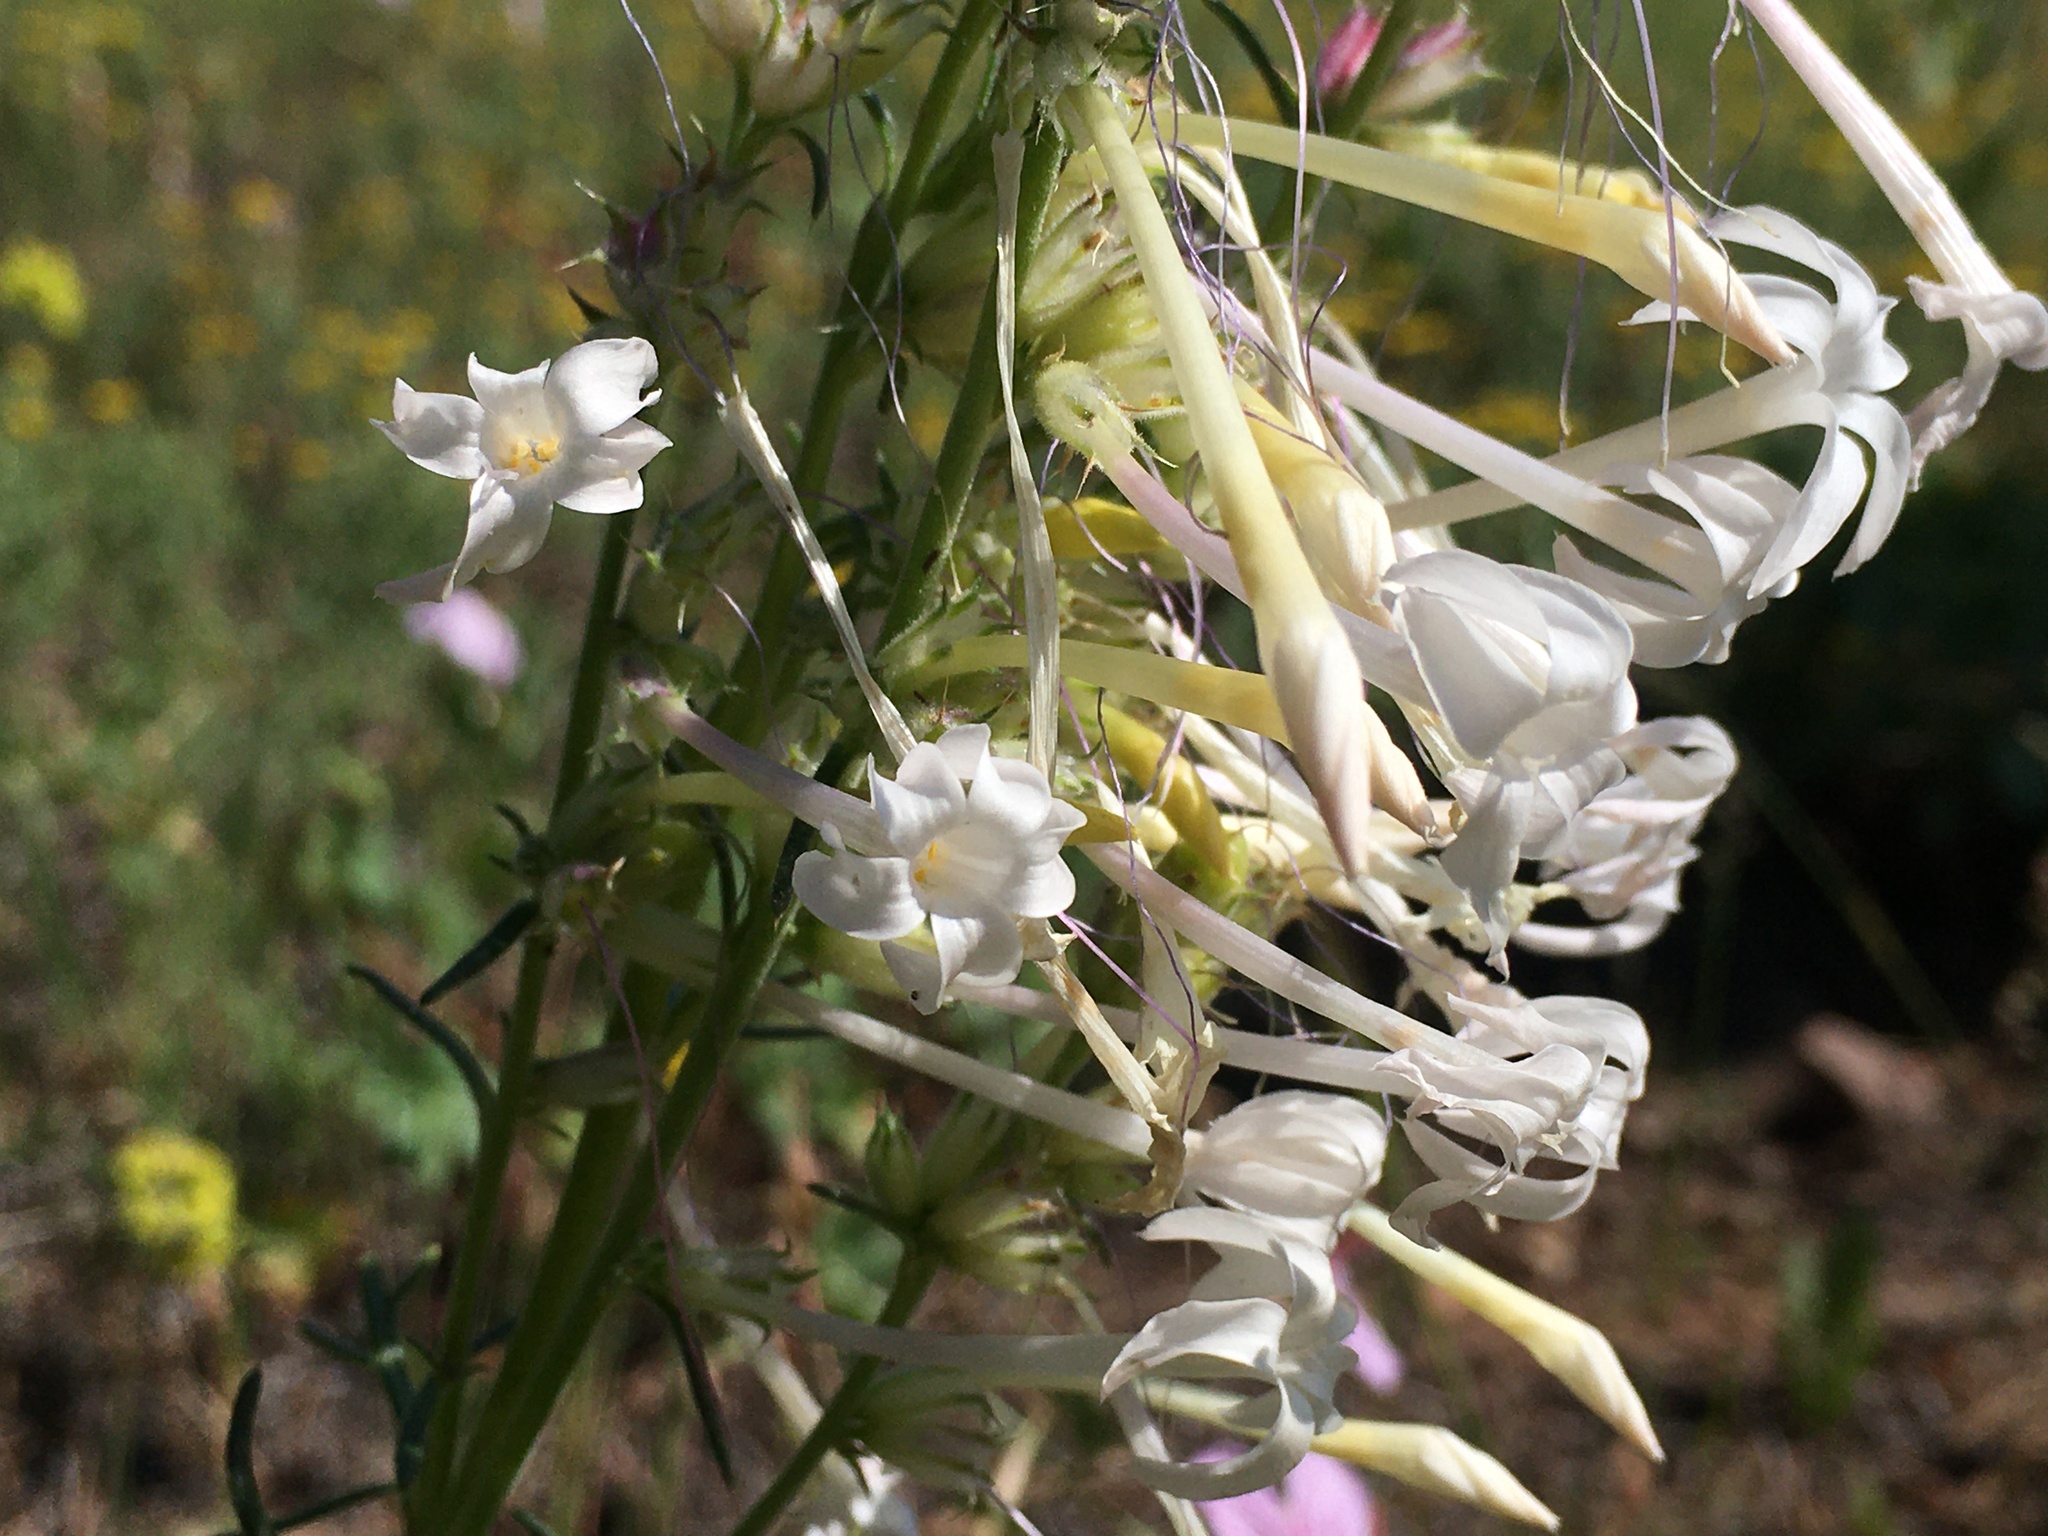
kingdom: Plantae
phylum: Tracheophyta
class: Magnoliopsida
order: Ericales
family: Polemoniaceae
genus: Ipomopsis
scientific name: Ipomopsis aggregata
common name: Scarlet gilia
